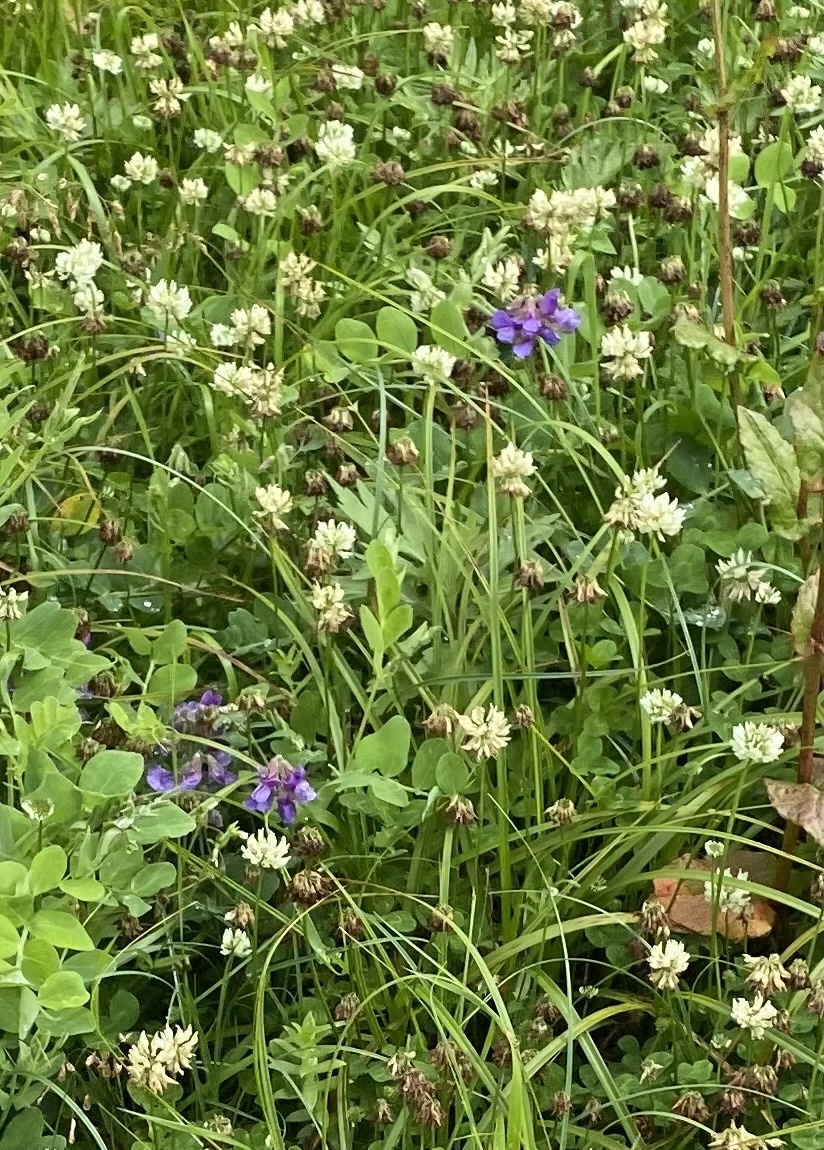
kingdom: Plantae
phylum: Tracheophyta
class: Magnoliopsida
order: Fabales
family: Fabaceae
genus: Trifolium
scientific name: Trifolium repens
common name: White clover
